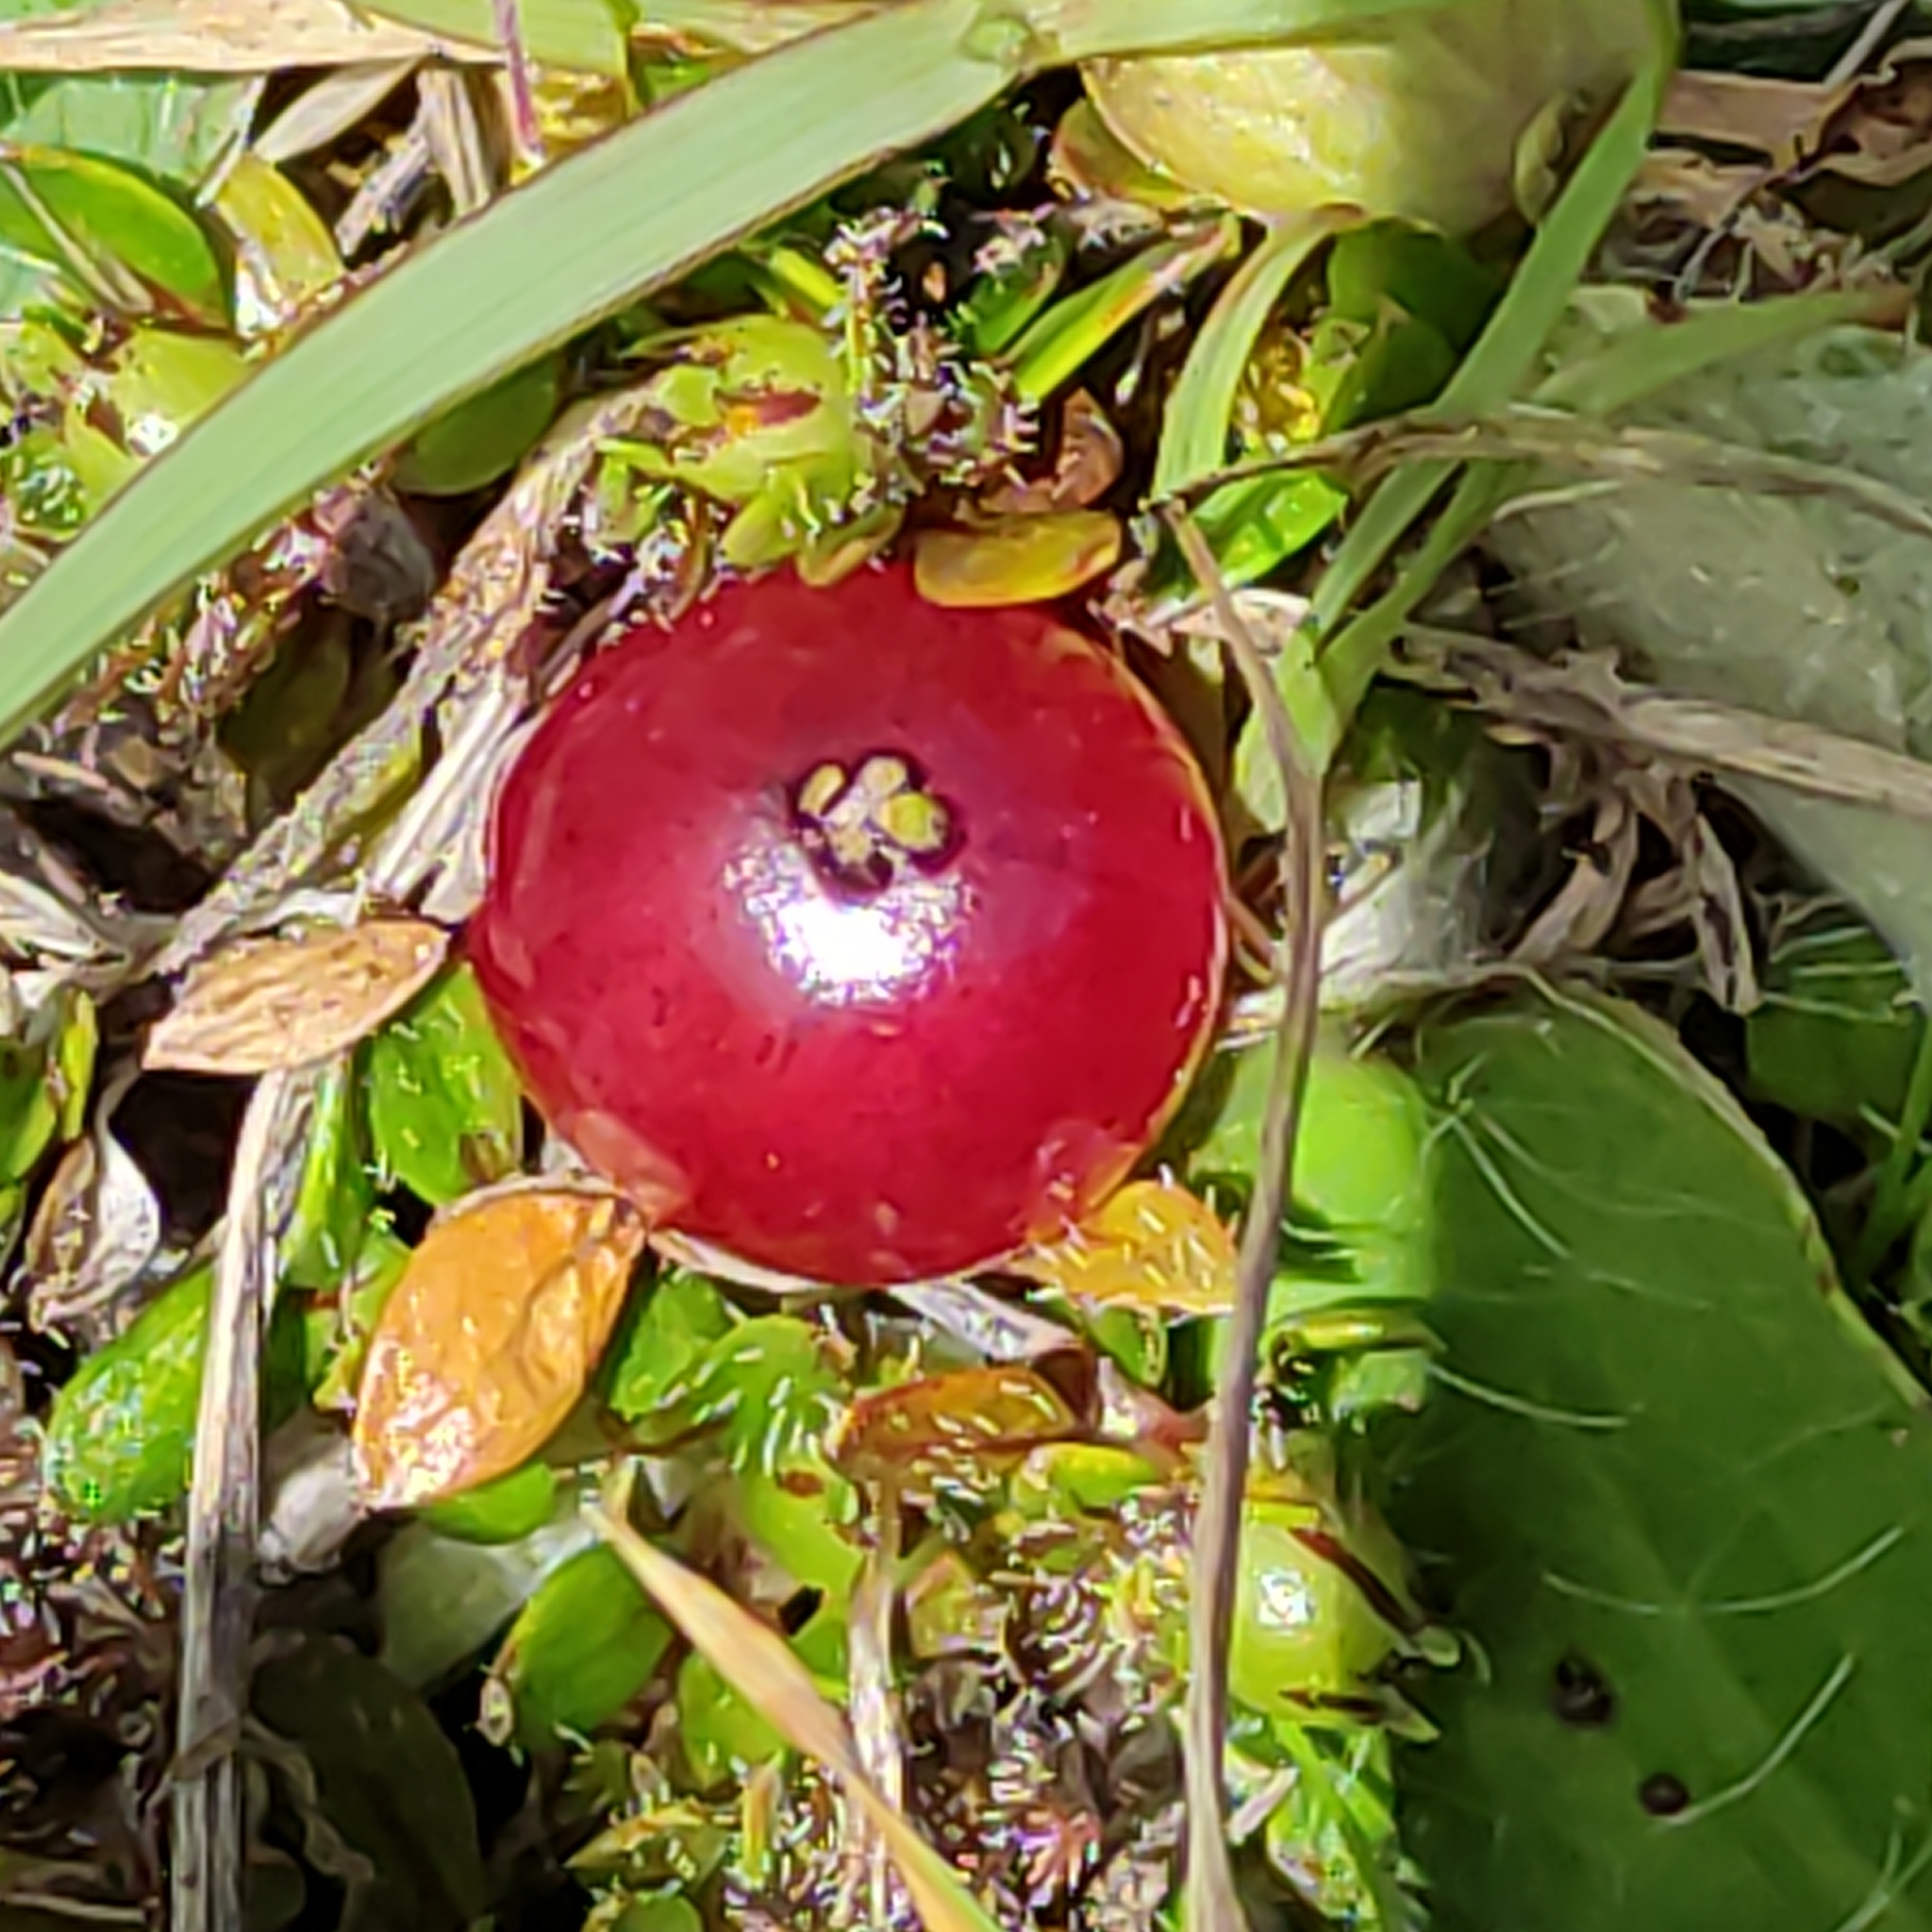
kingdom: Plantae
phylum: Tracheophyta
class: Magnoliopsida
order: Gentianales
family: Rubiaceae
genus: Coprosma
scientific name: Coprosma atropurpurea
